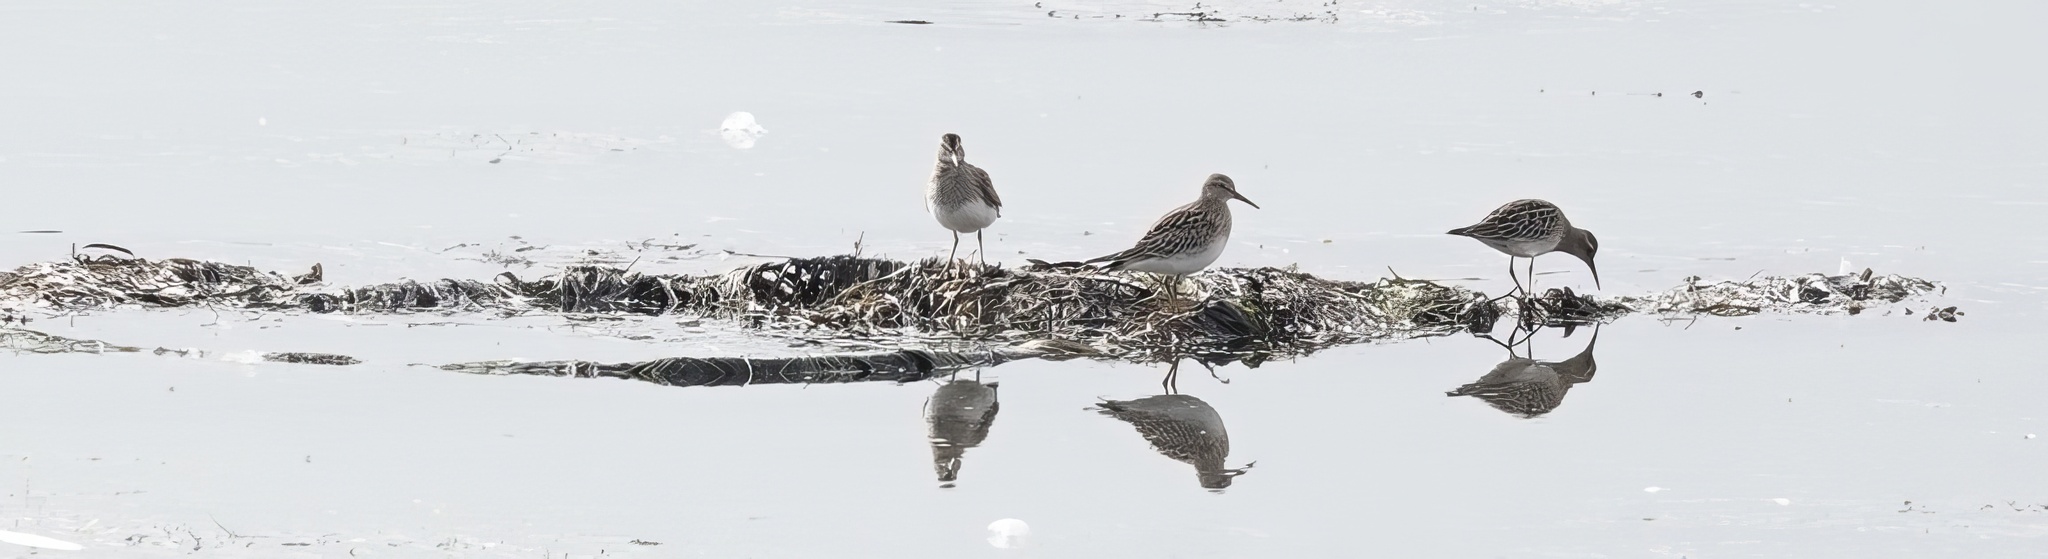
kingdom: Animalia
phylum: Chordata
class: Aves
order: Charadriiformes
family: Scolopacidae
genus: Calidris
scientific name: Calidris melanotos
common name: Pectoral sandpiper
